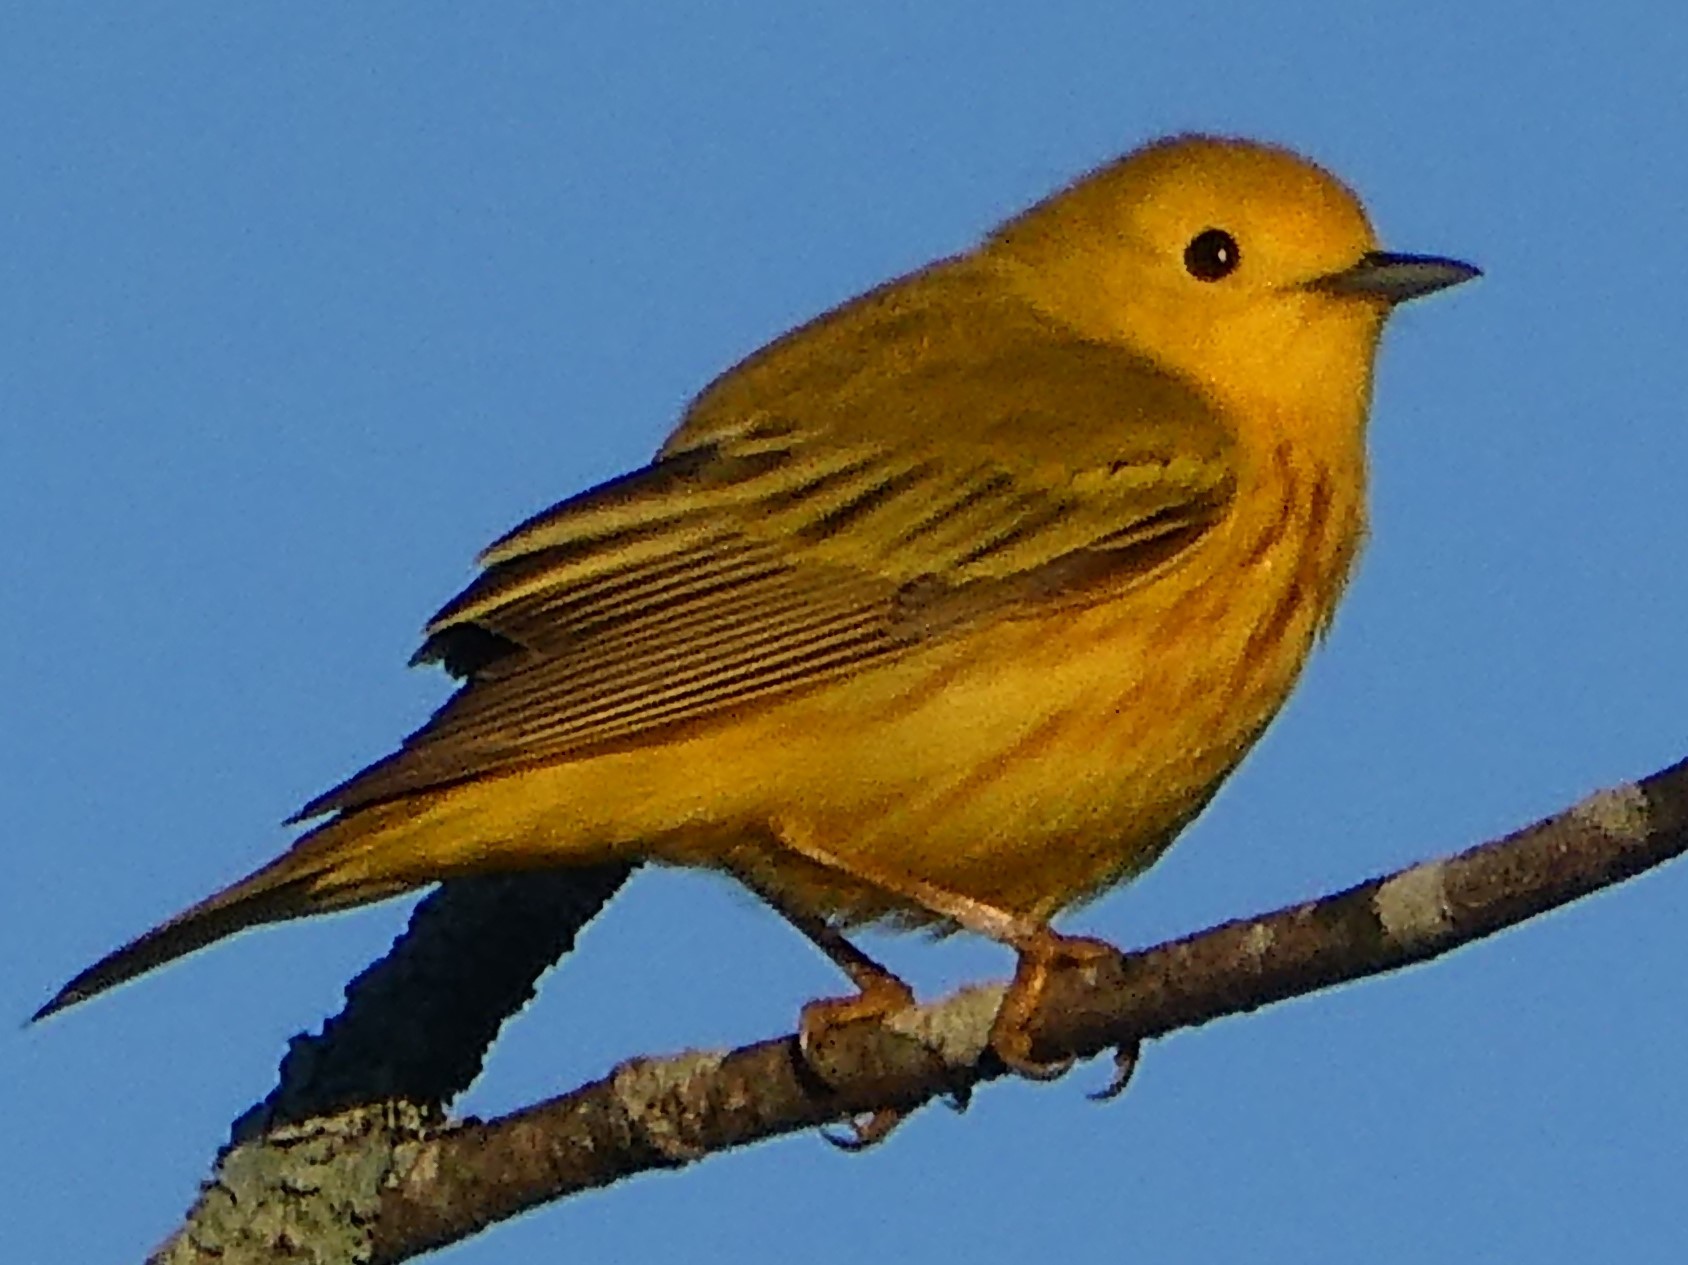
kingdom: Animalia
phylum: Chordata
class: Aves
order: Passeriformes
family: Parulidae
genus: Setophaga
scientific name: Setophaga petechia
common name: Yellow warbler
